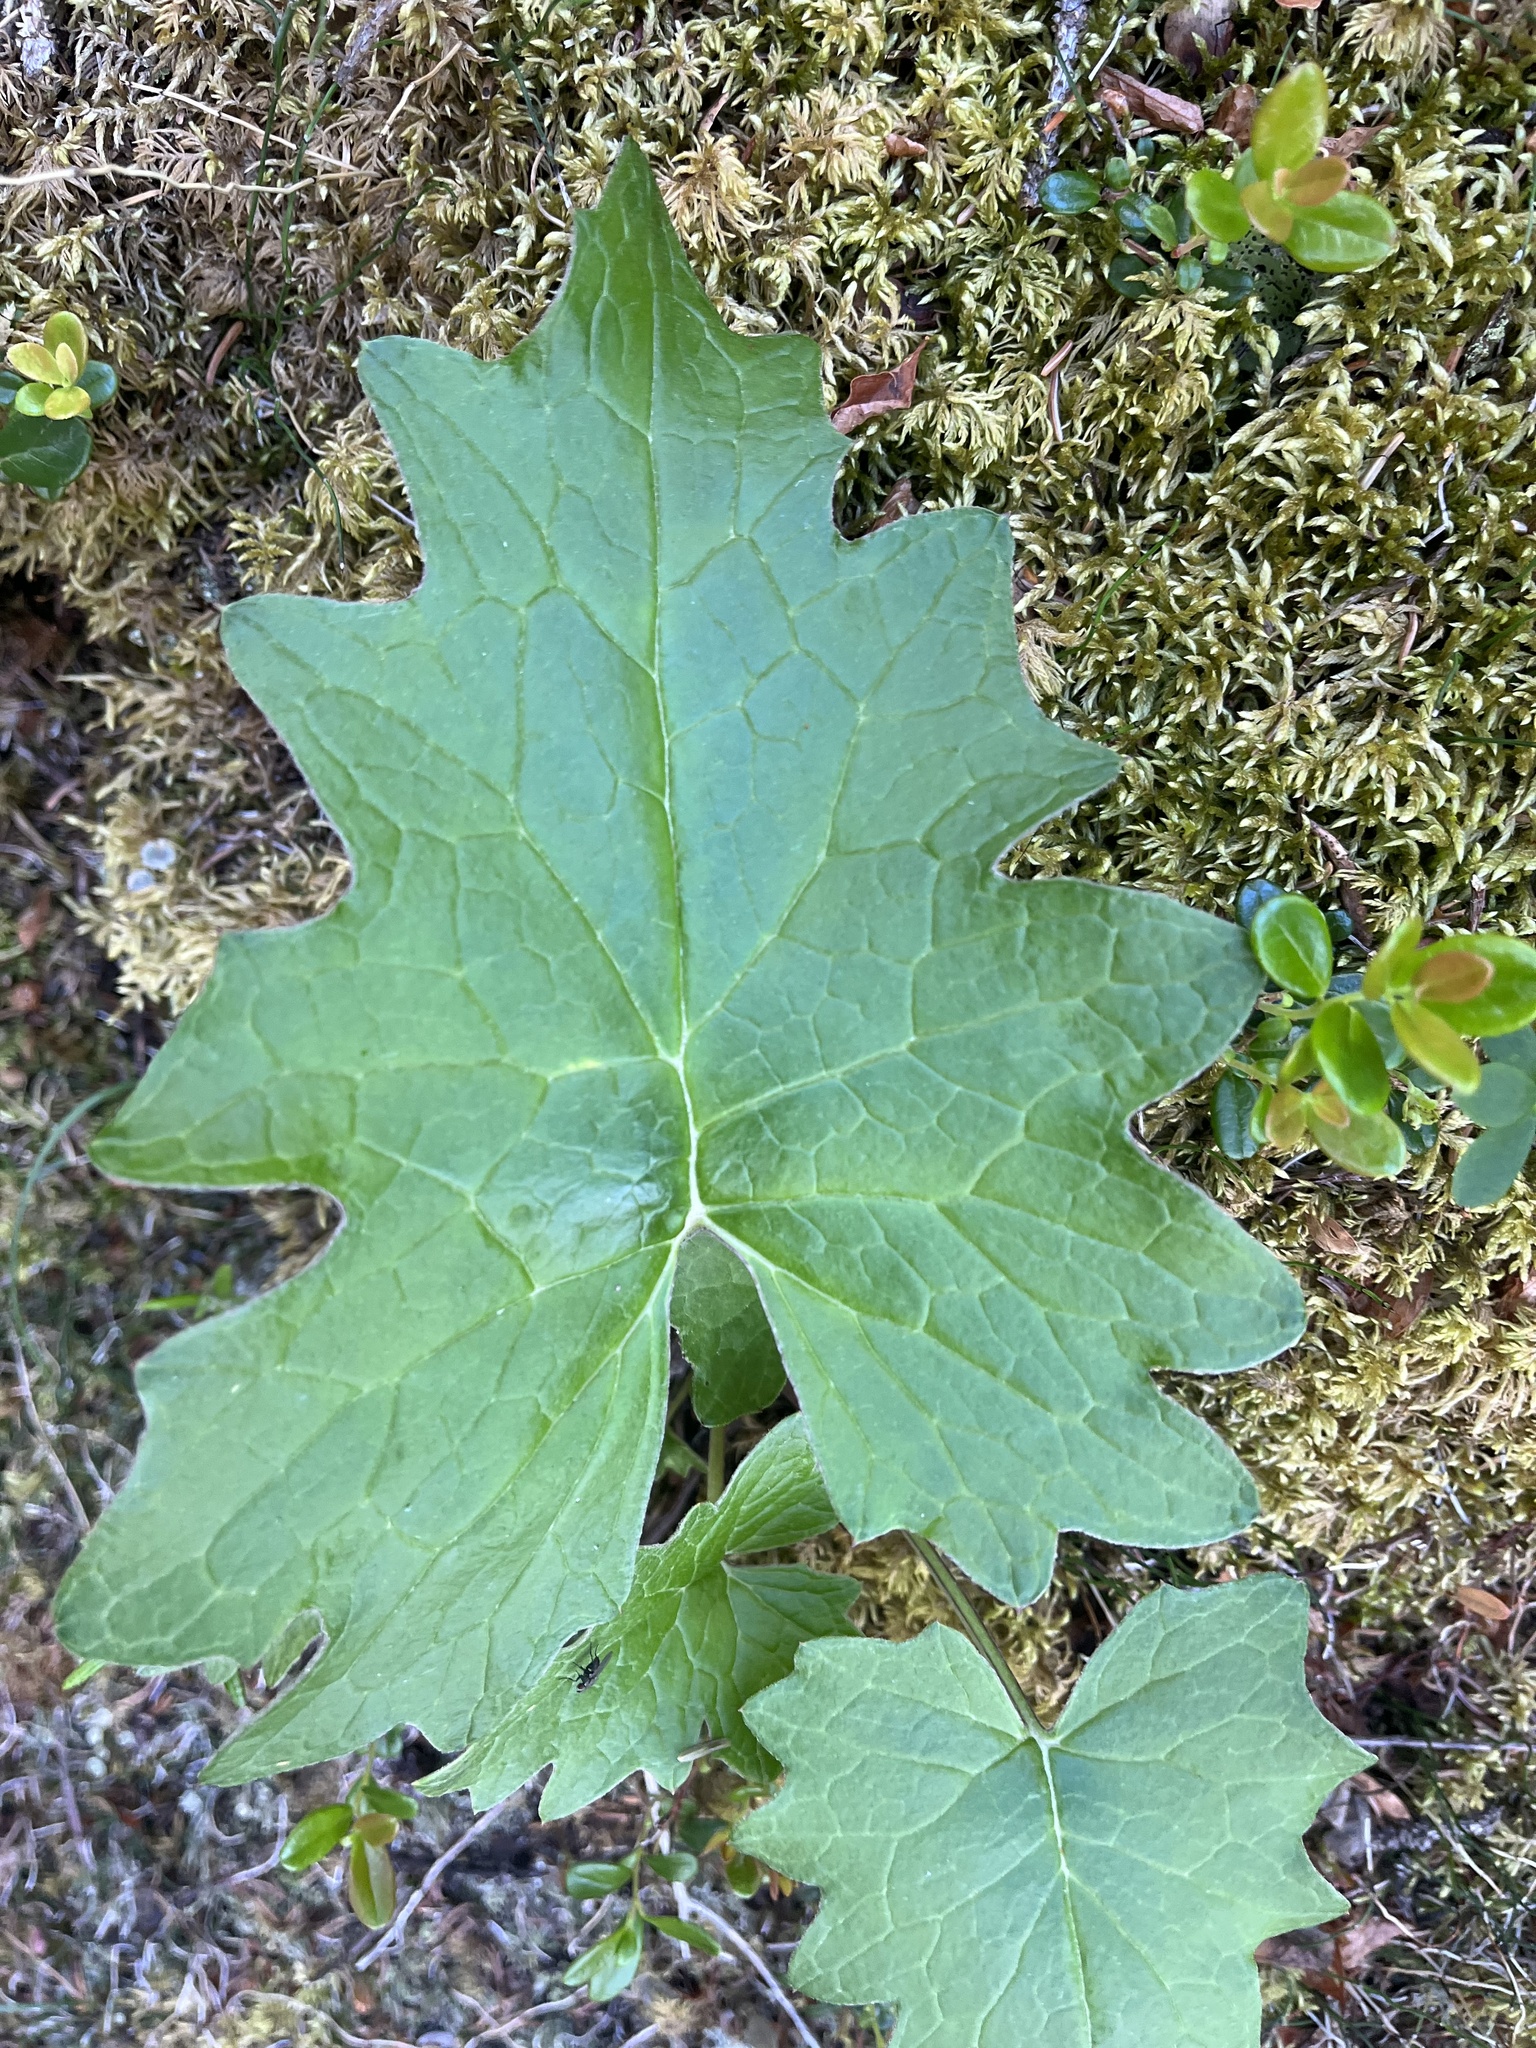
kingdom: Plantae
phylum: Tracheophyta
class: Magnoliopsida
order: Asterales
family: Asteraceae
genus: Petasites
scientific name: Petasites frigidus
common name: Arctic butterbur
